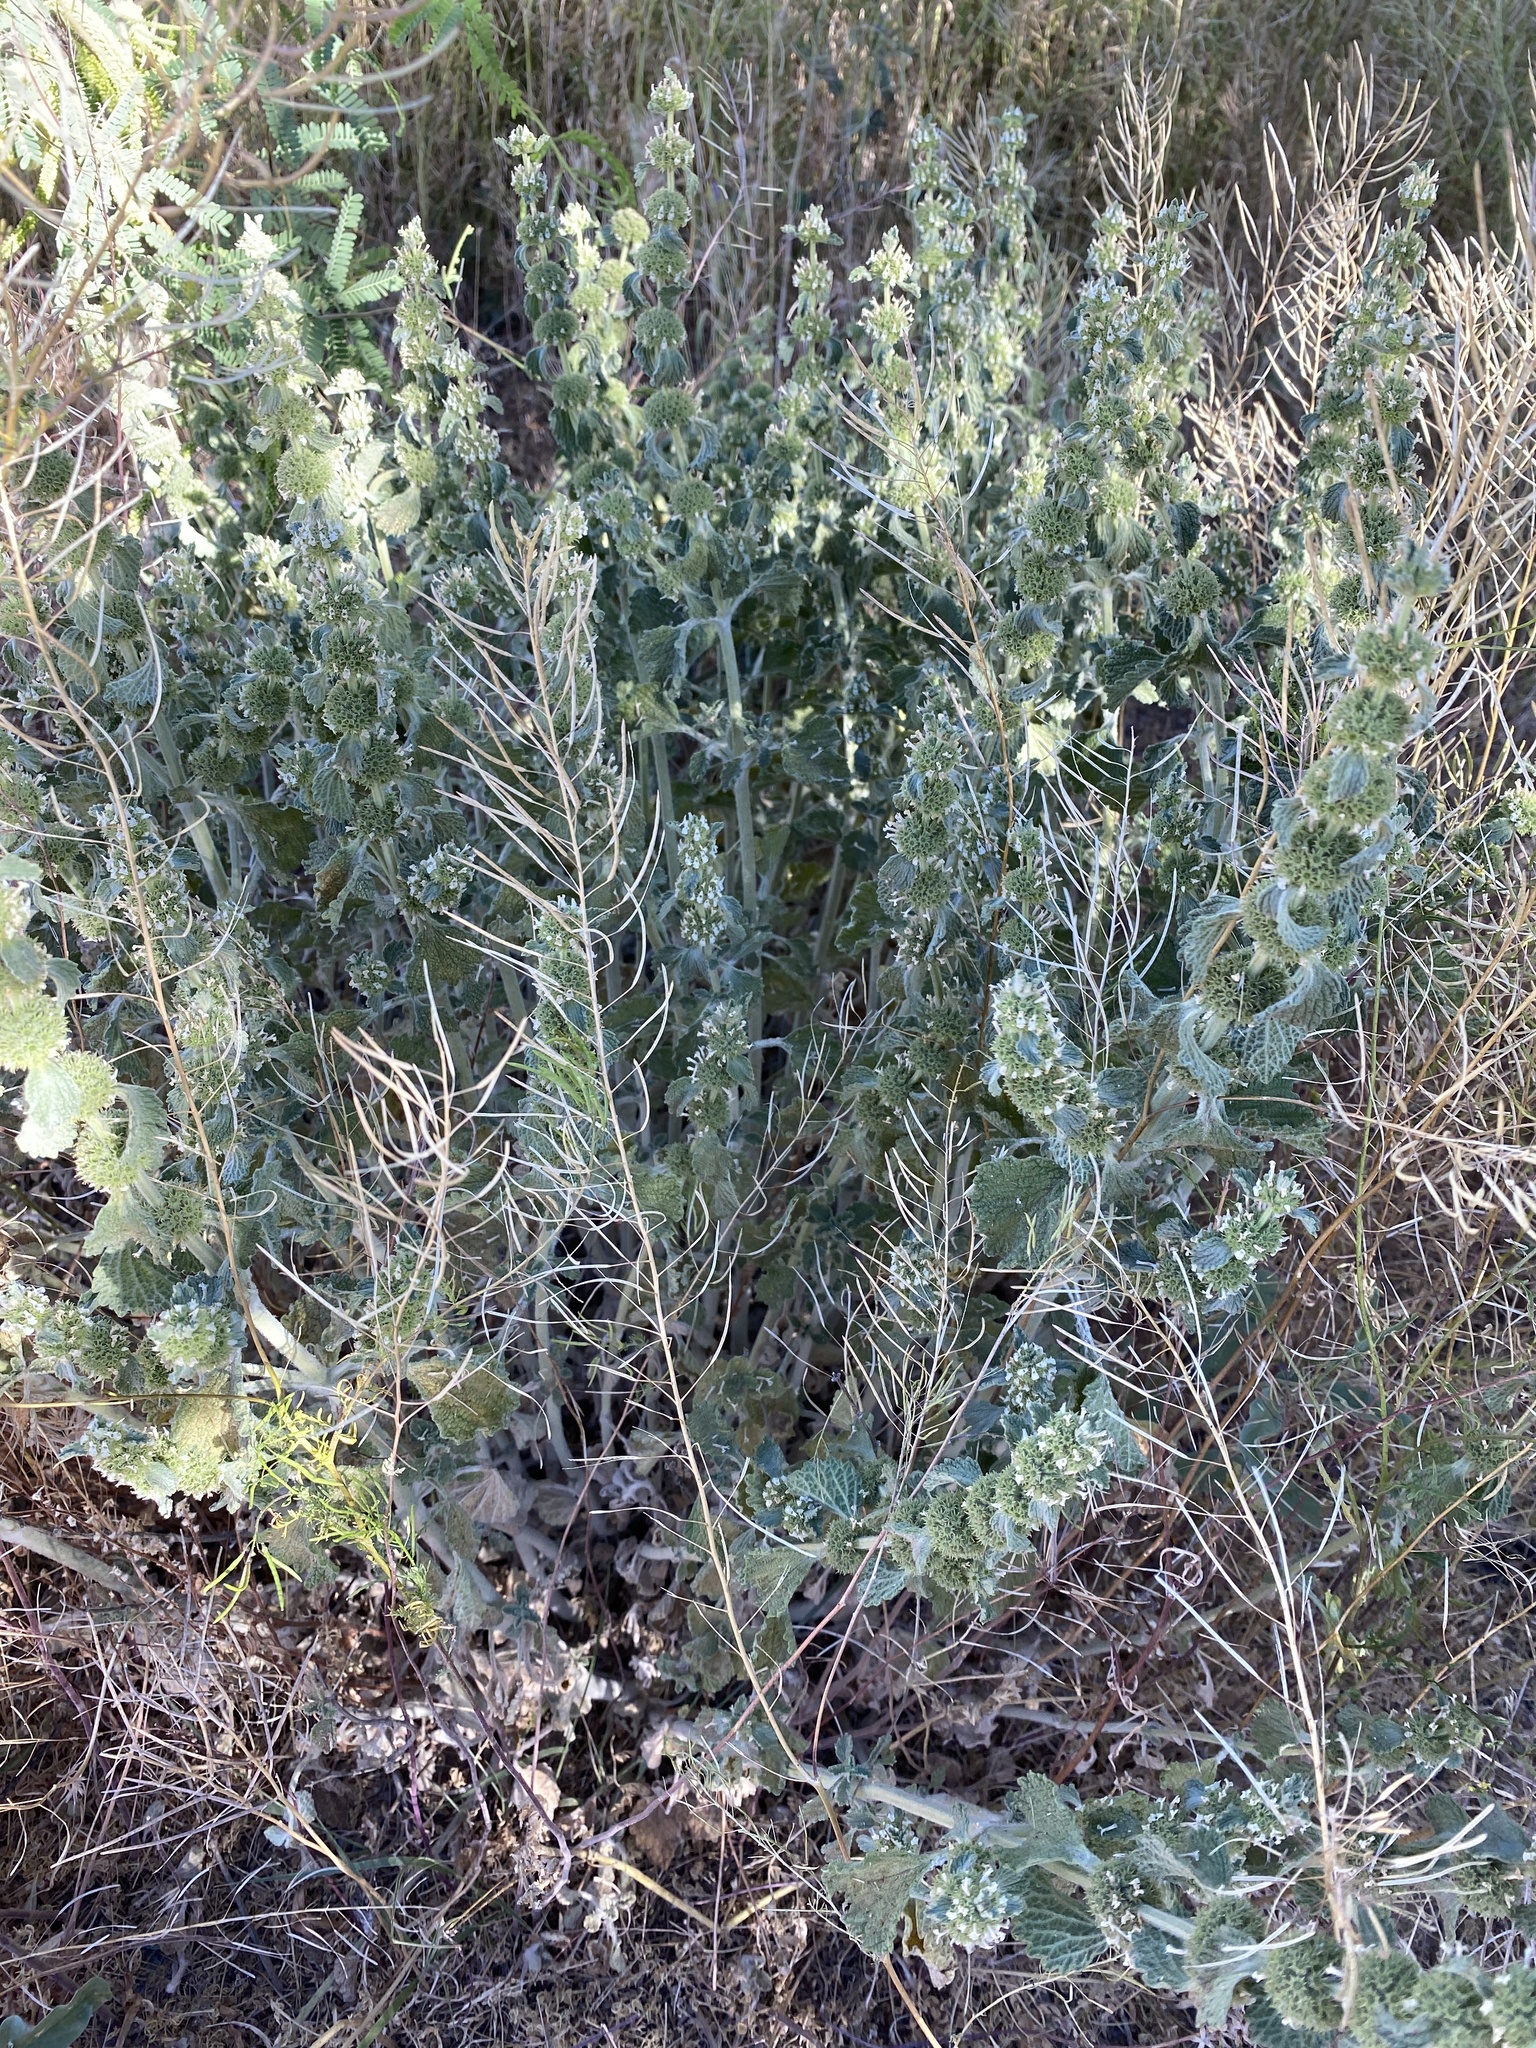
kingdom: Plantae
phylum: Tracheophyta
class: Magnoliopsida
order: Lamiales
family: Lamiaceae
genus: Marrubium
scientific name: Marrubium vulgare
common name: Horehound
